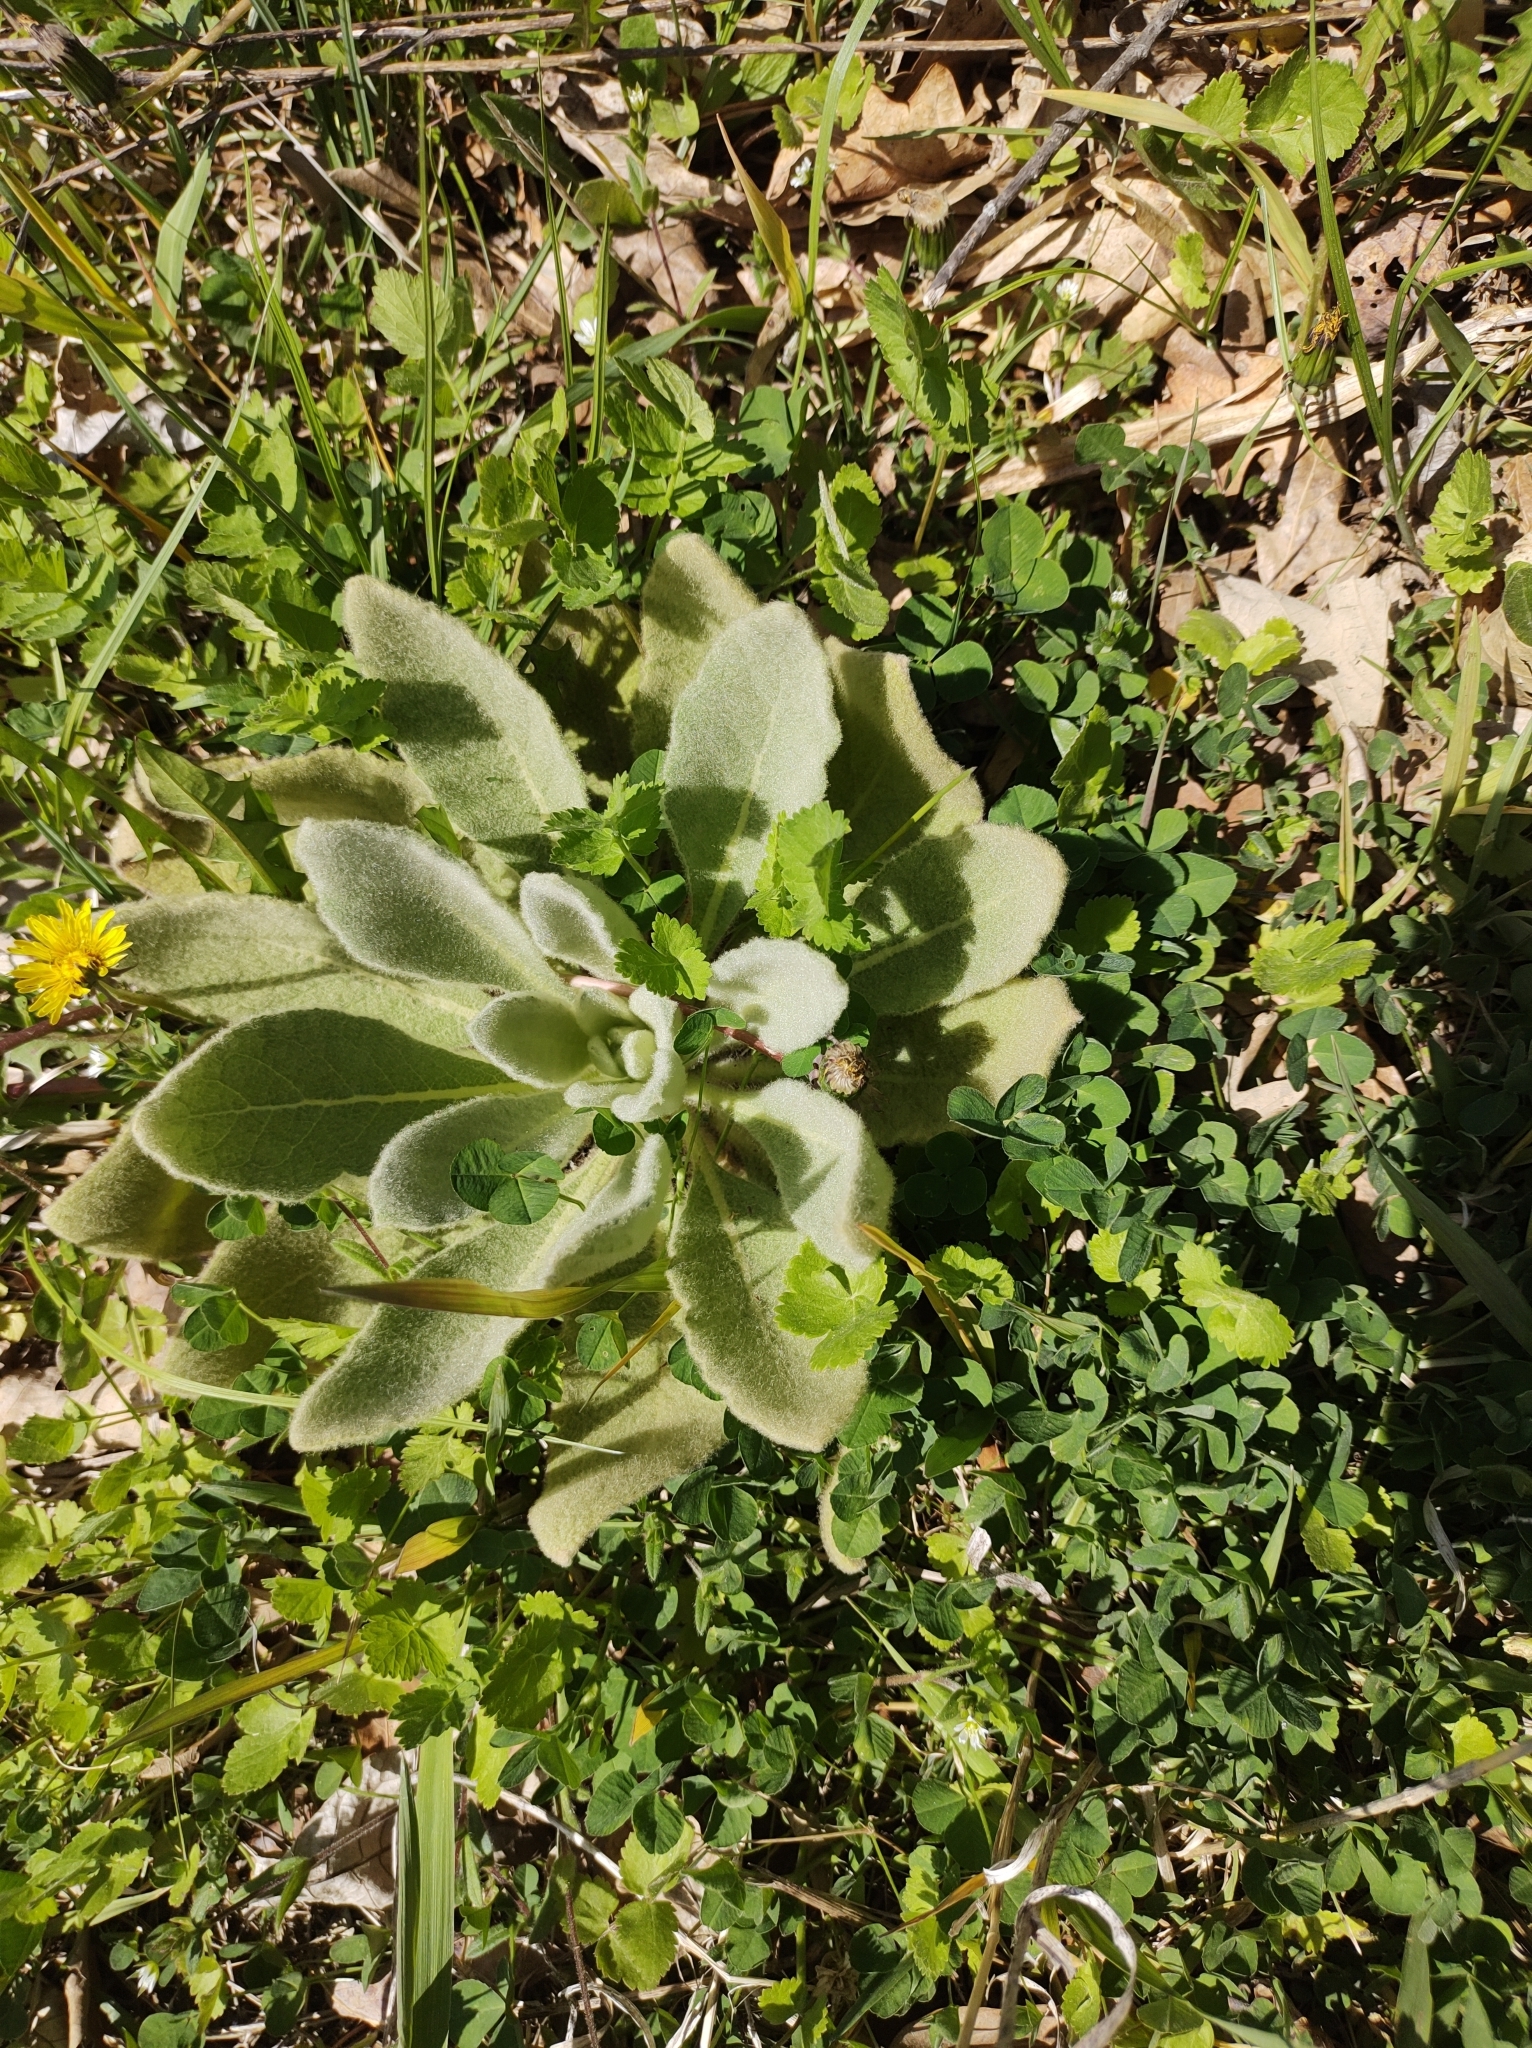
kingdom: Plantae
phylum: Tracheophyta
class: Magnoliopsida
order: Lamiales
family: Scrophulariaceae
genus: Verbascum
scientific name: Verbascum thapsus
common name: Common mullein
